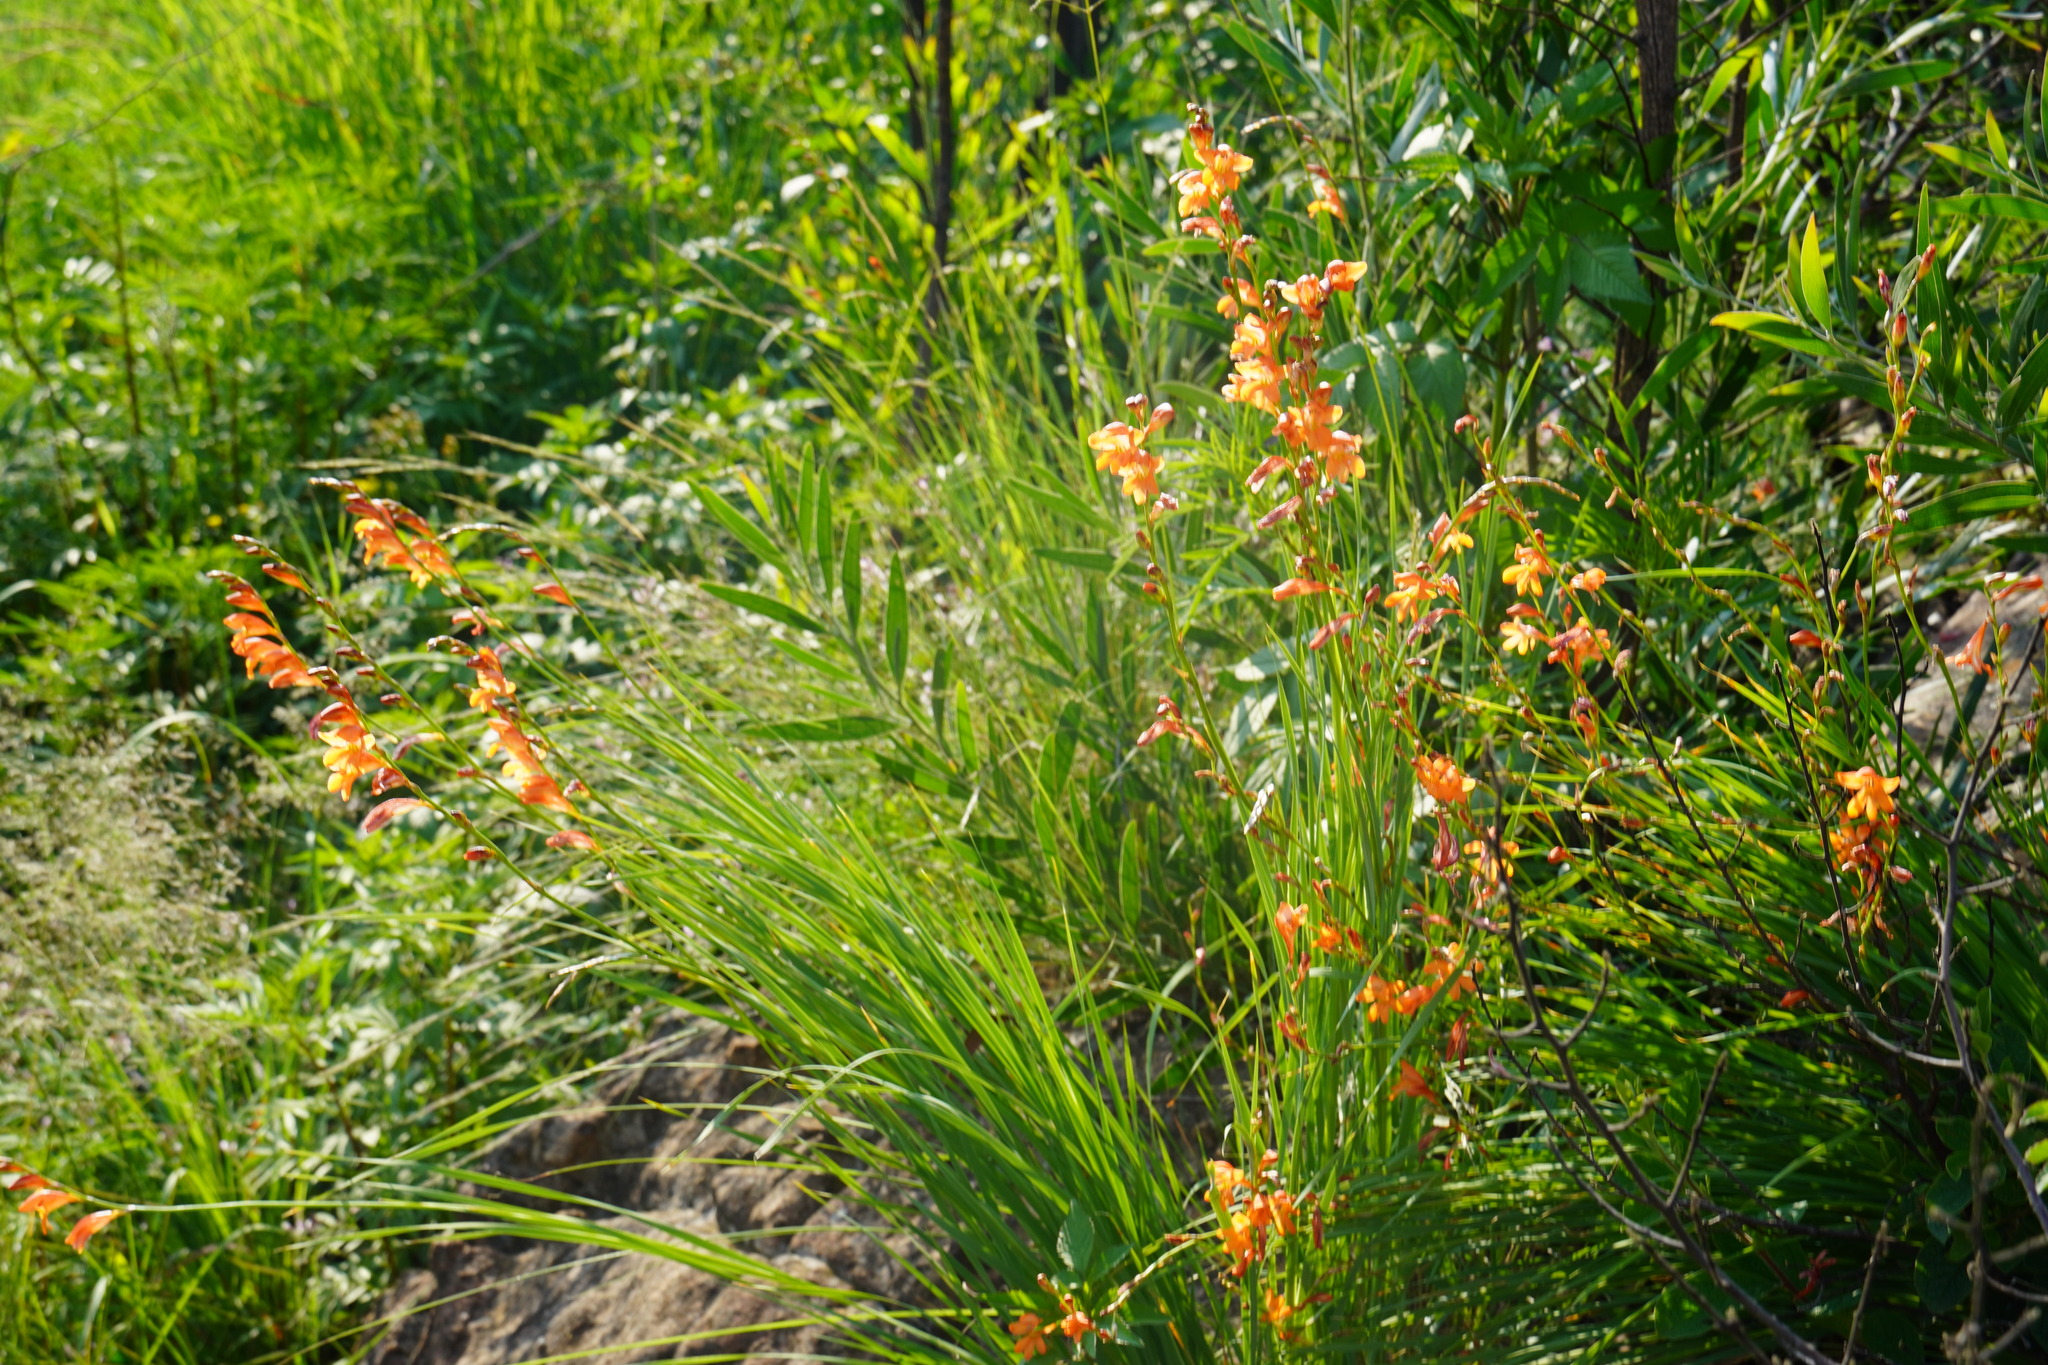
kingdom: Plantae
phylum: Tracheophyta
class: Liliopsida
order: Asparagales
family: Iridaceae
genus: Tritonia
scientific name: Tritonia nelsonii
